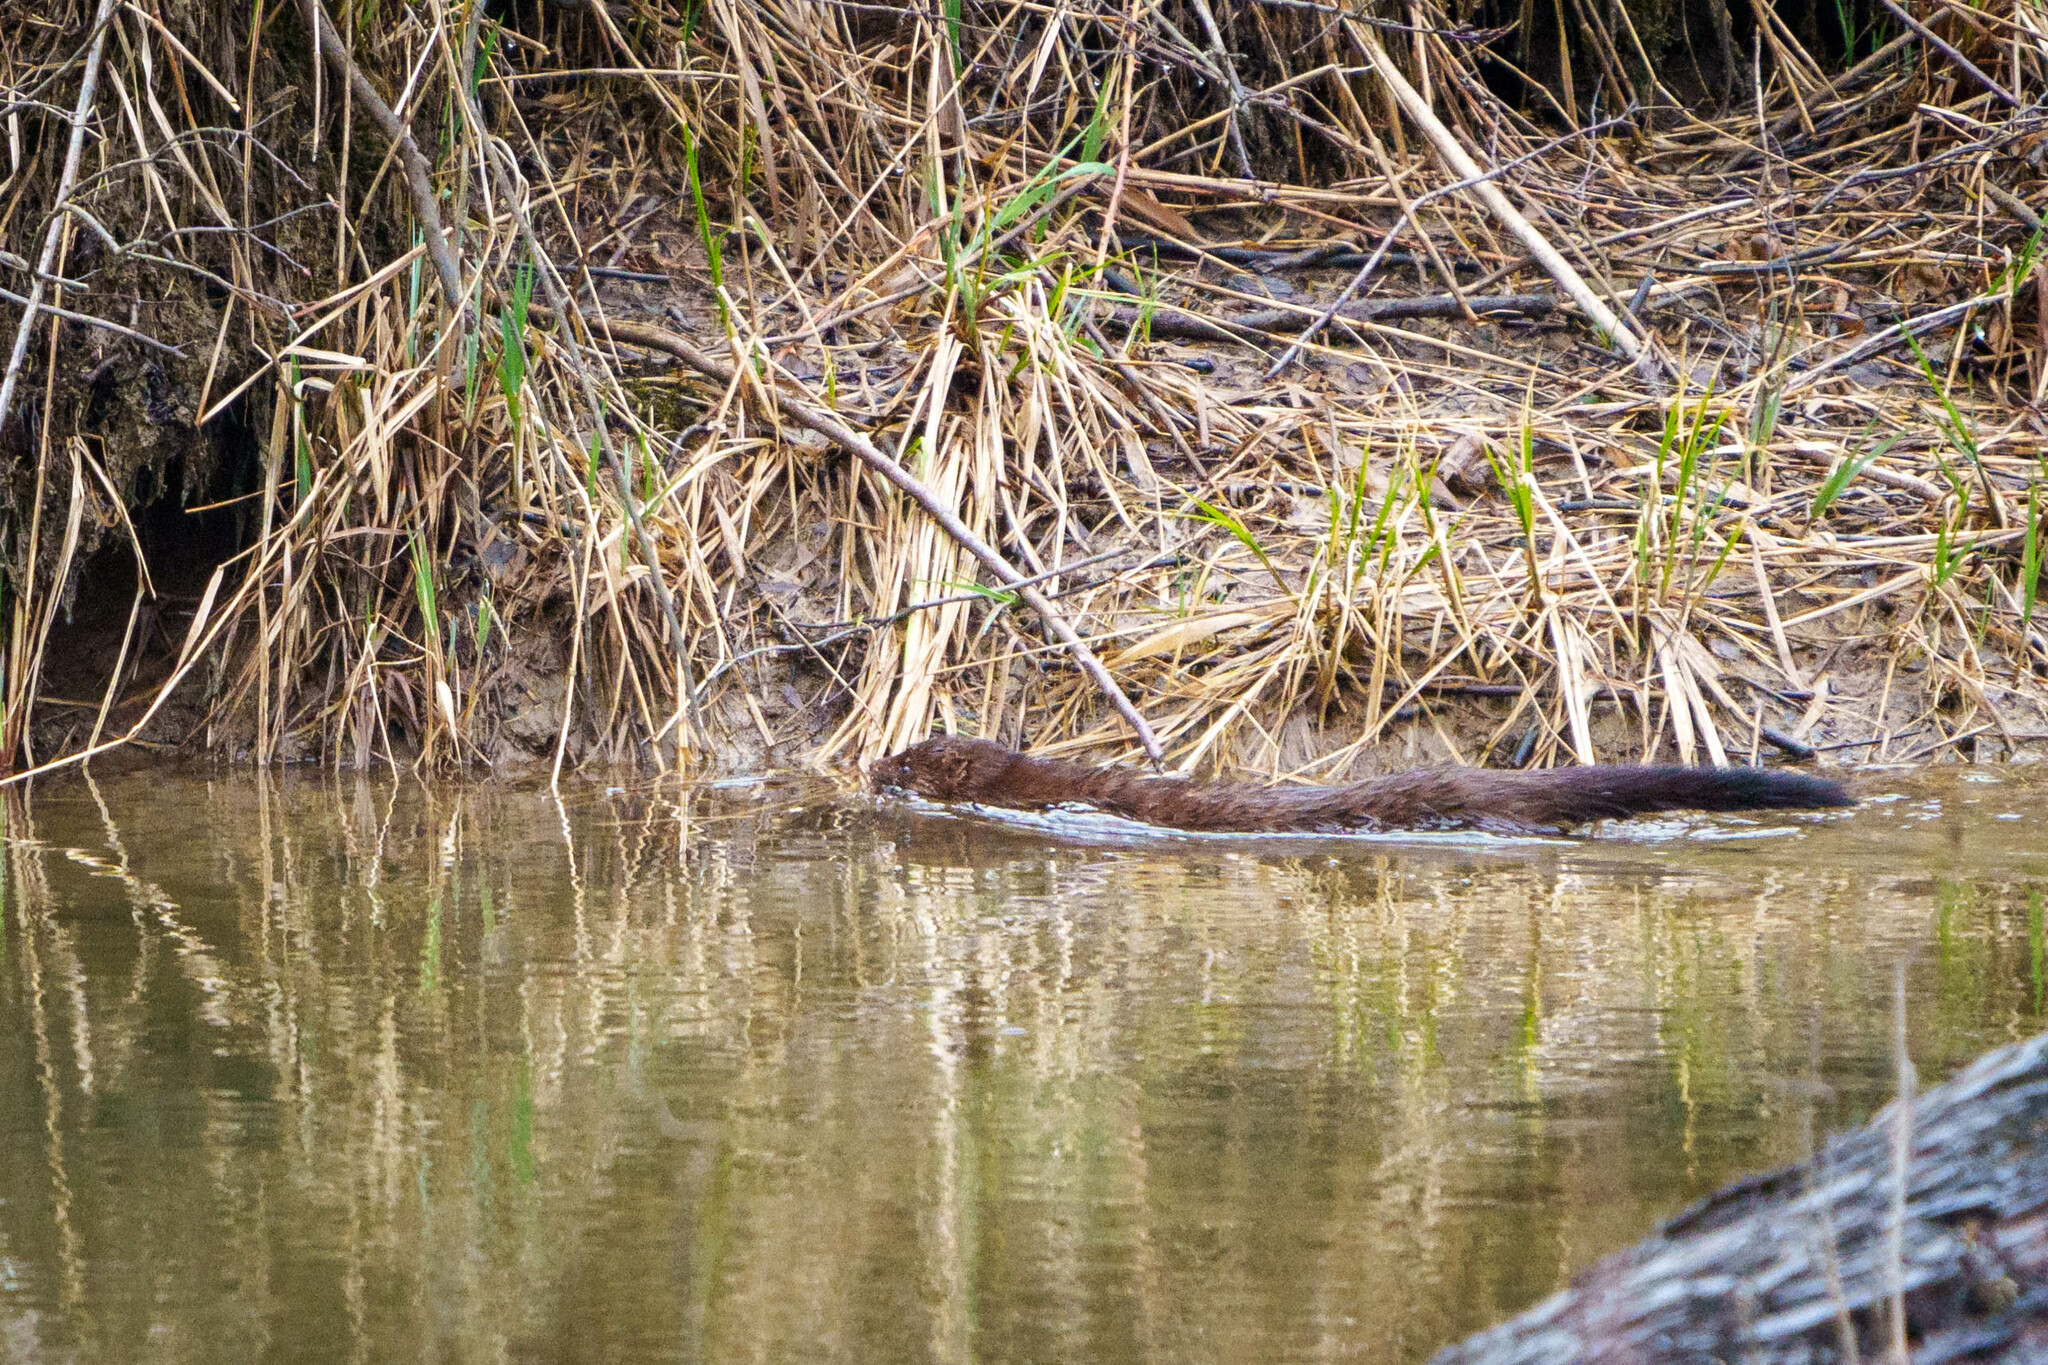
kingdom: Animalia
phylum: Chordata
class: Mammalia
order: Carnivora
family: Mustelidae
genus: Mustela
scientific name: Mustela
